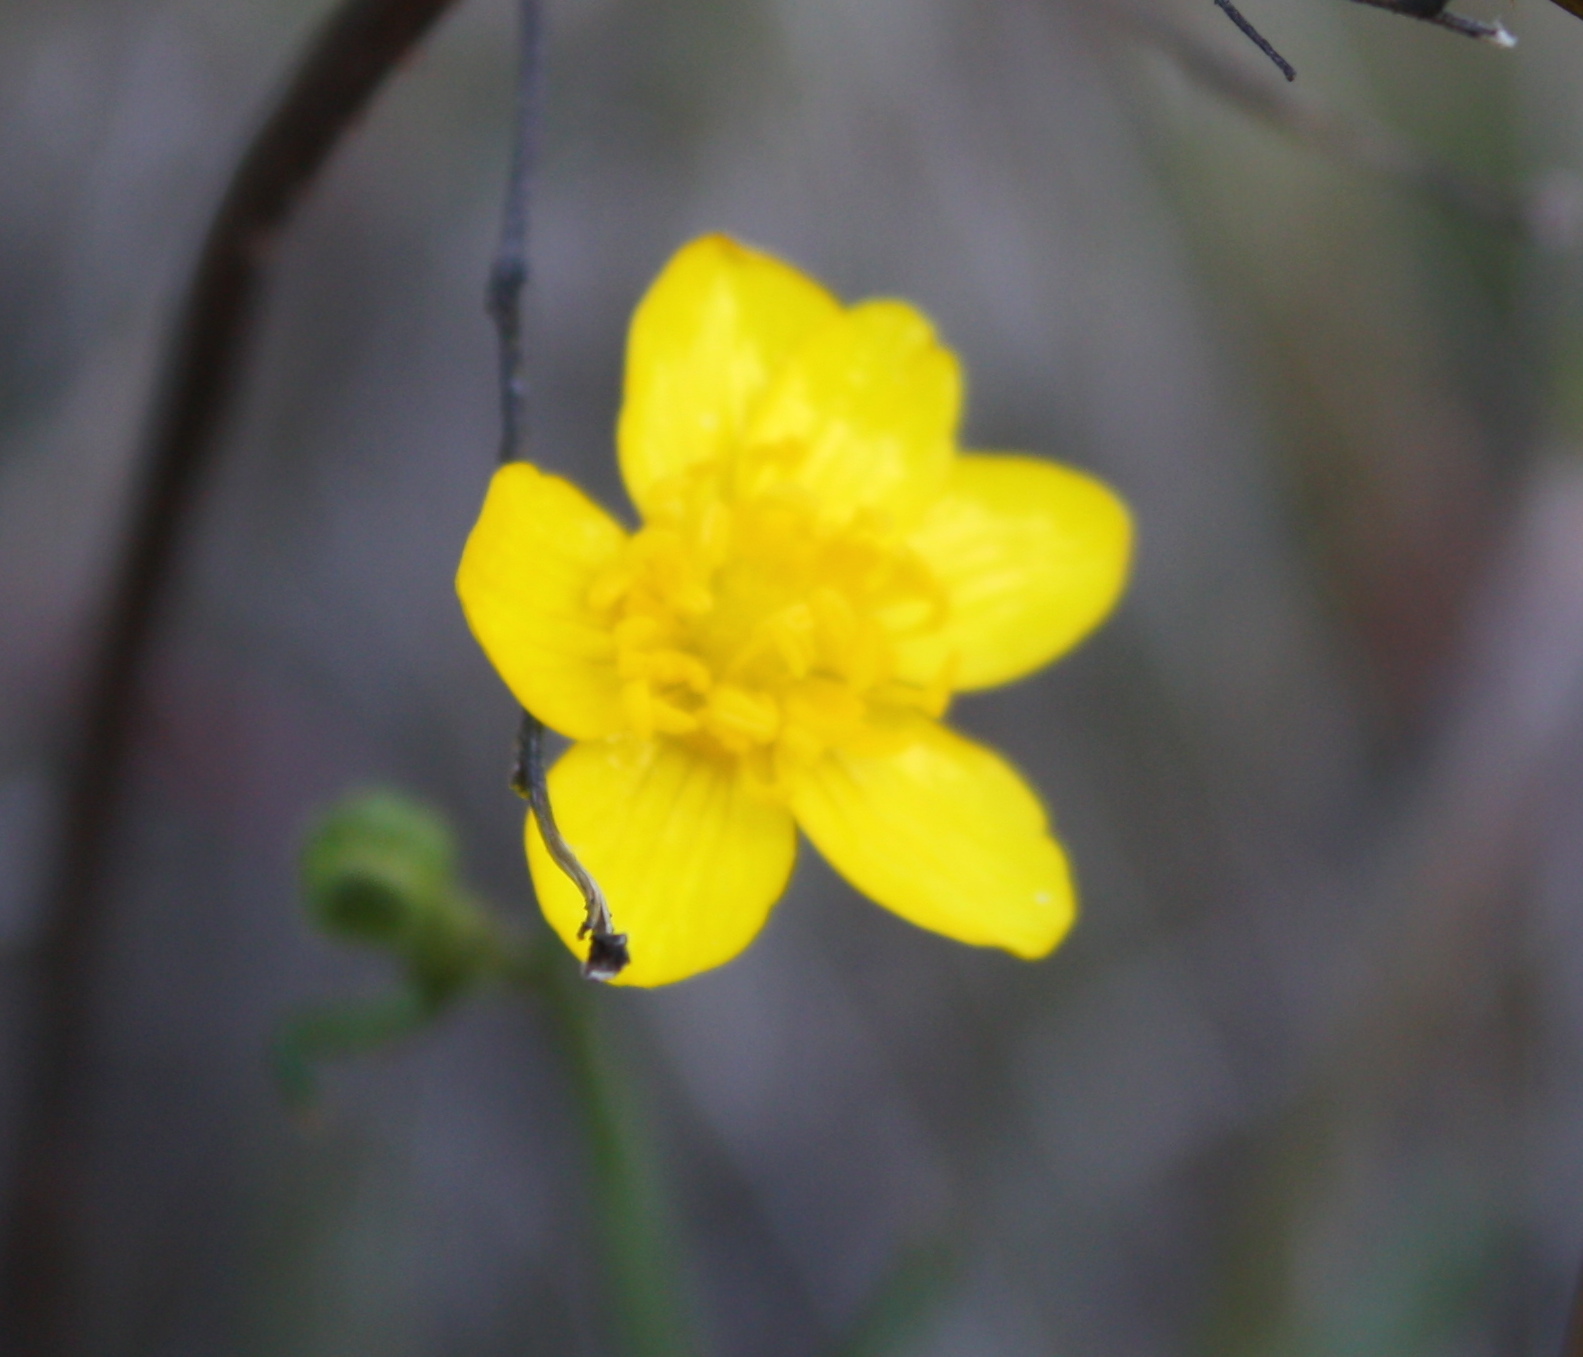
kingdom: Plantae
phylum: Tracheophyta
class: Magnoliopsida
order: Ranunculales
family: Ranunculaceae
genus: Ranunculus
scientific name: Ranunculus occidentalis
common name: Western buttercup
